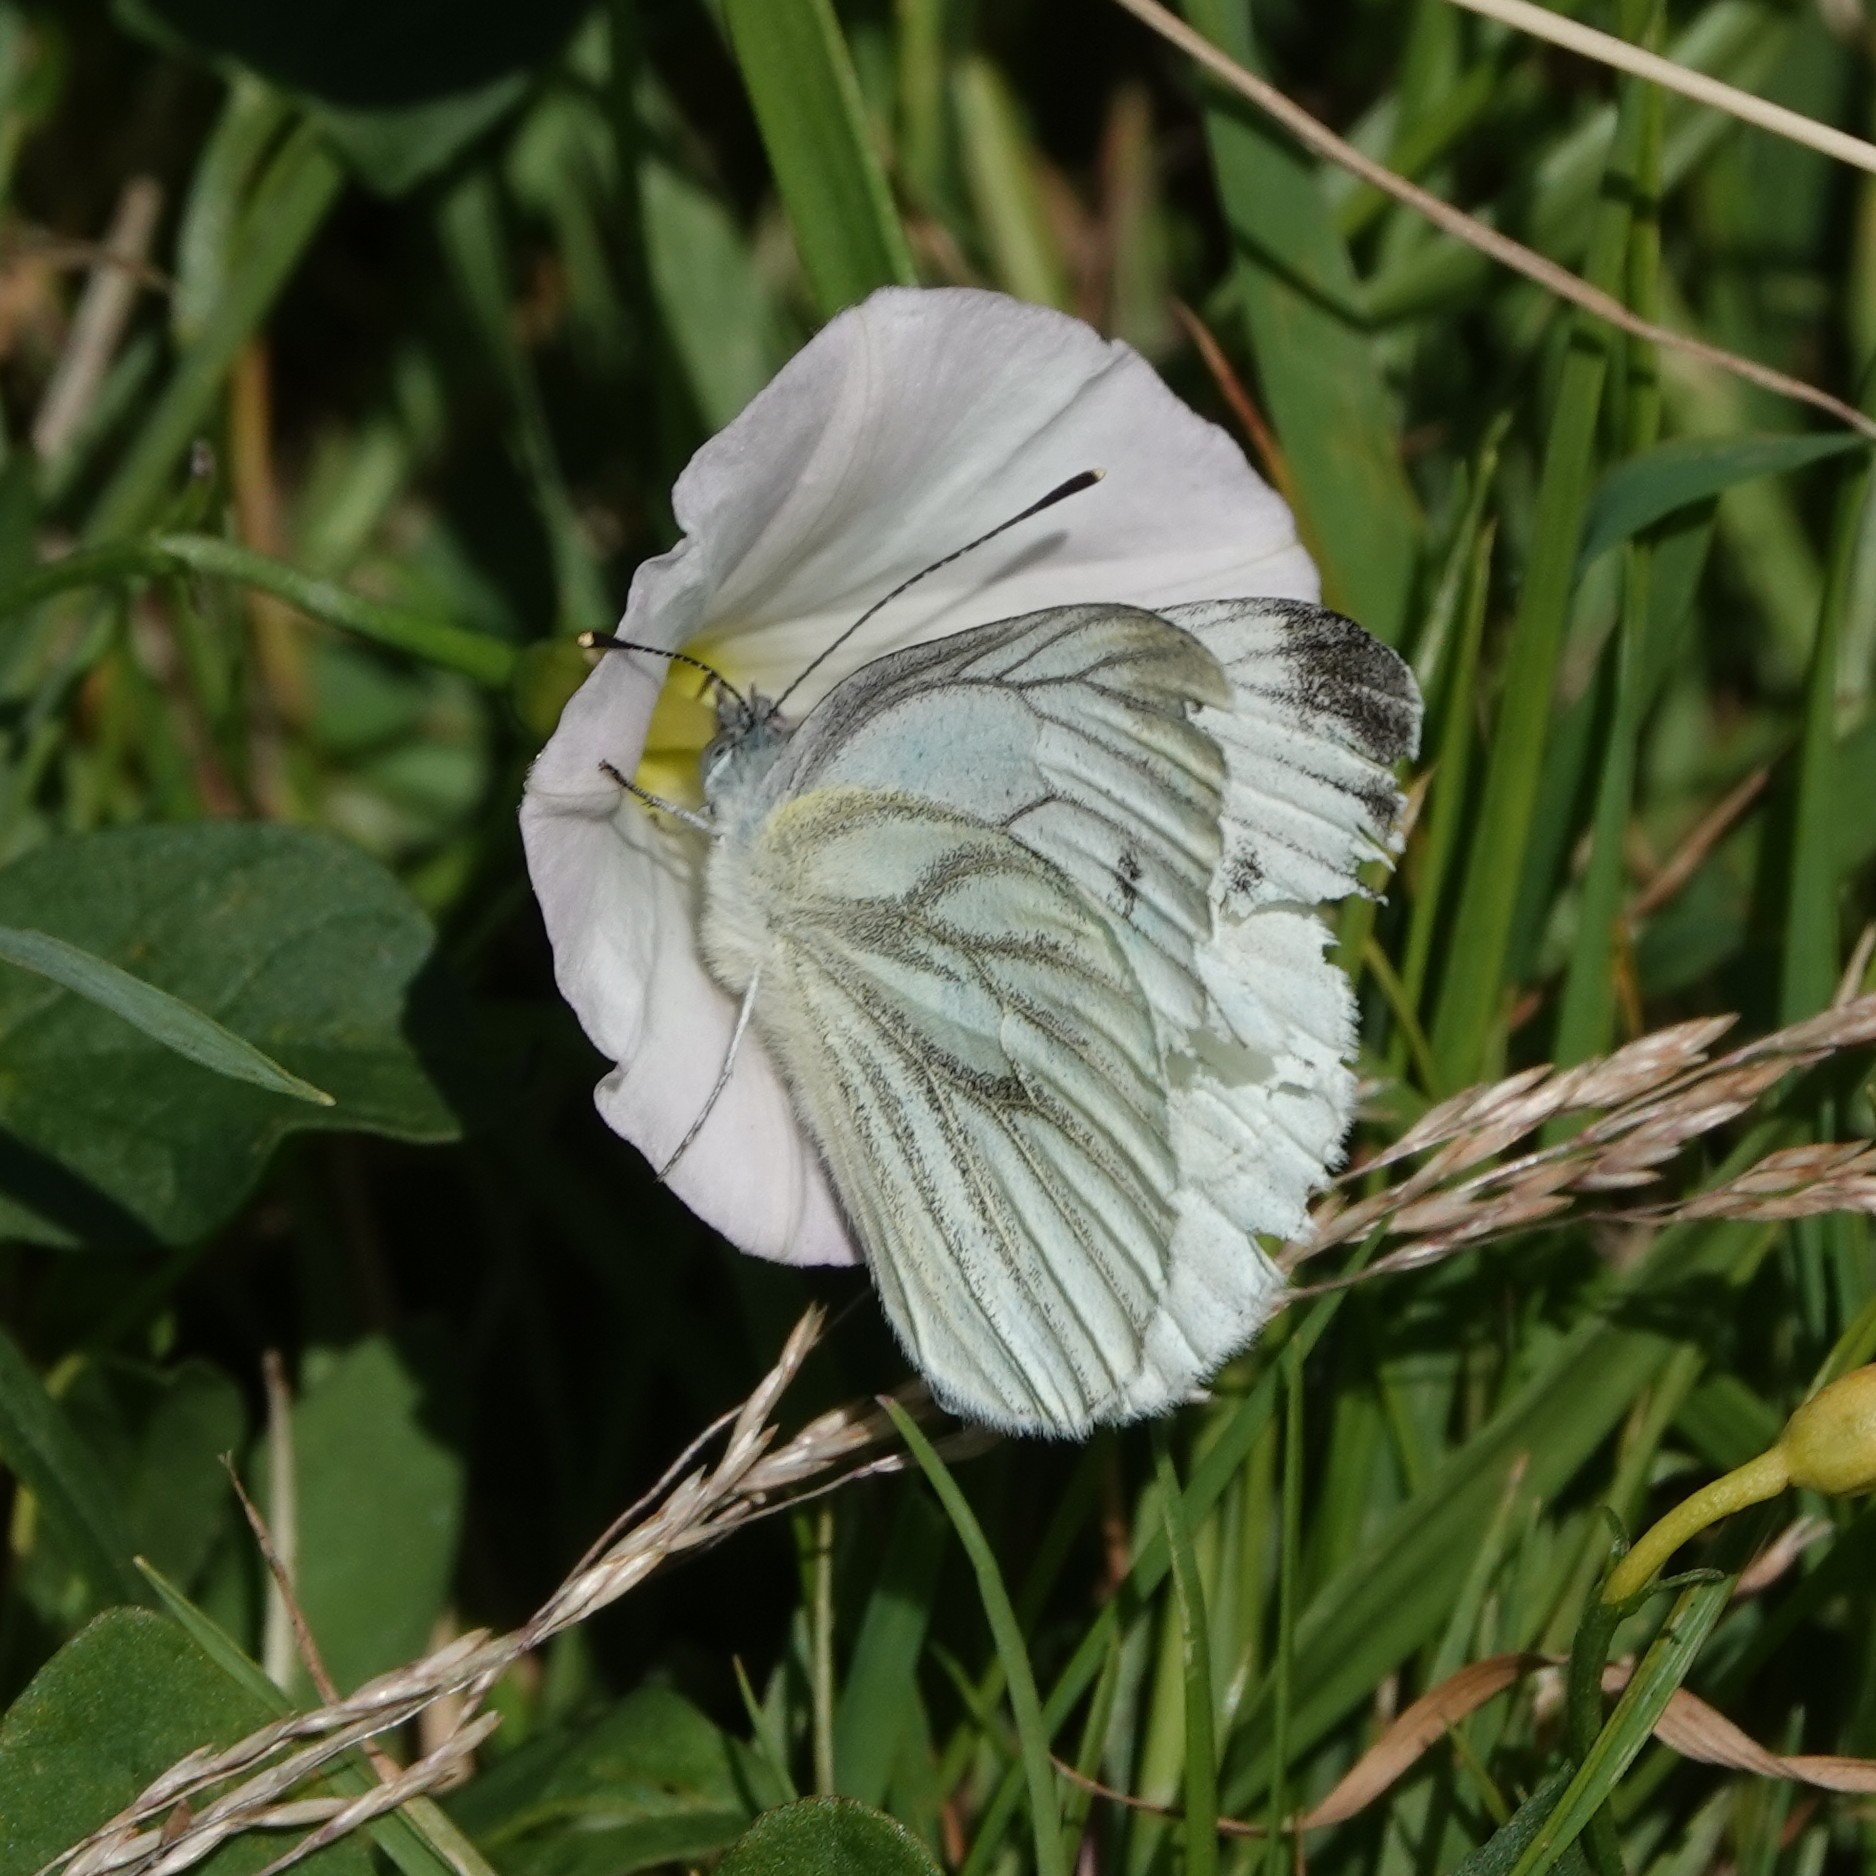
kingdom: Animalia
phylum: Arthropoda
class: Insecta
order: Lepidoptera
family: Pieridae
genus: Pieris
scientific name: Pieris napi
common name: Green-veined white
